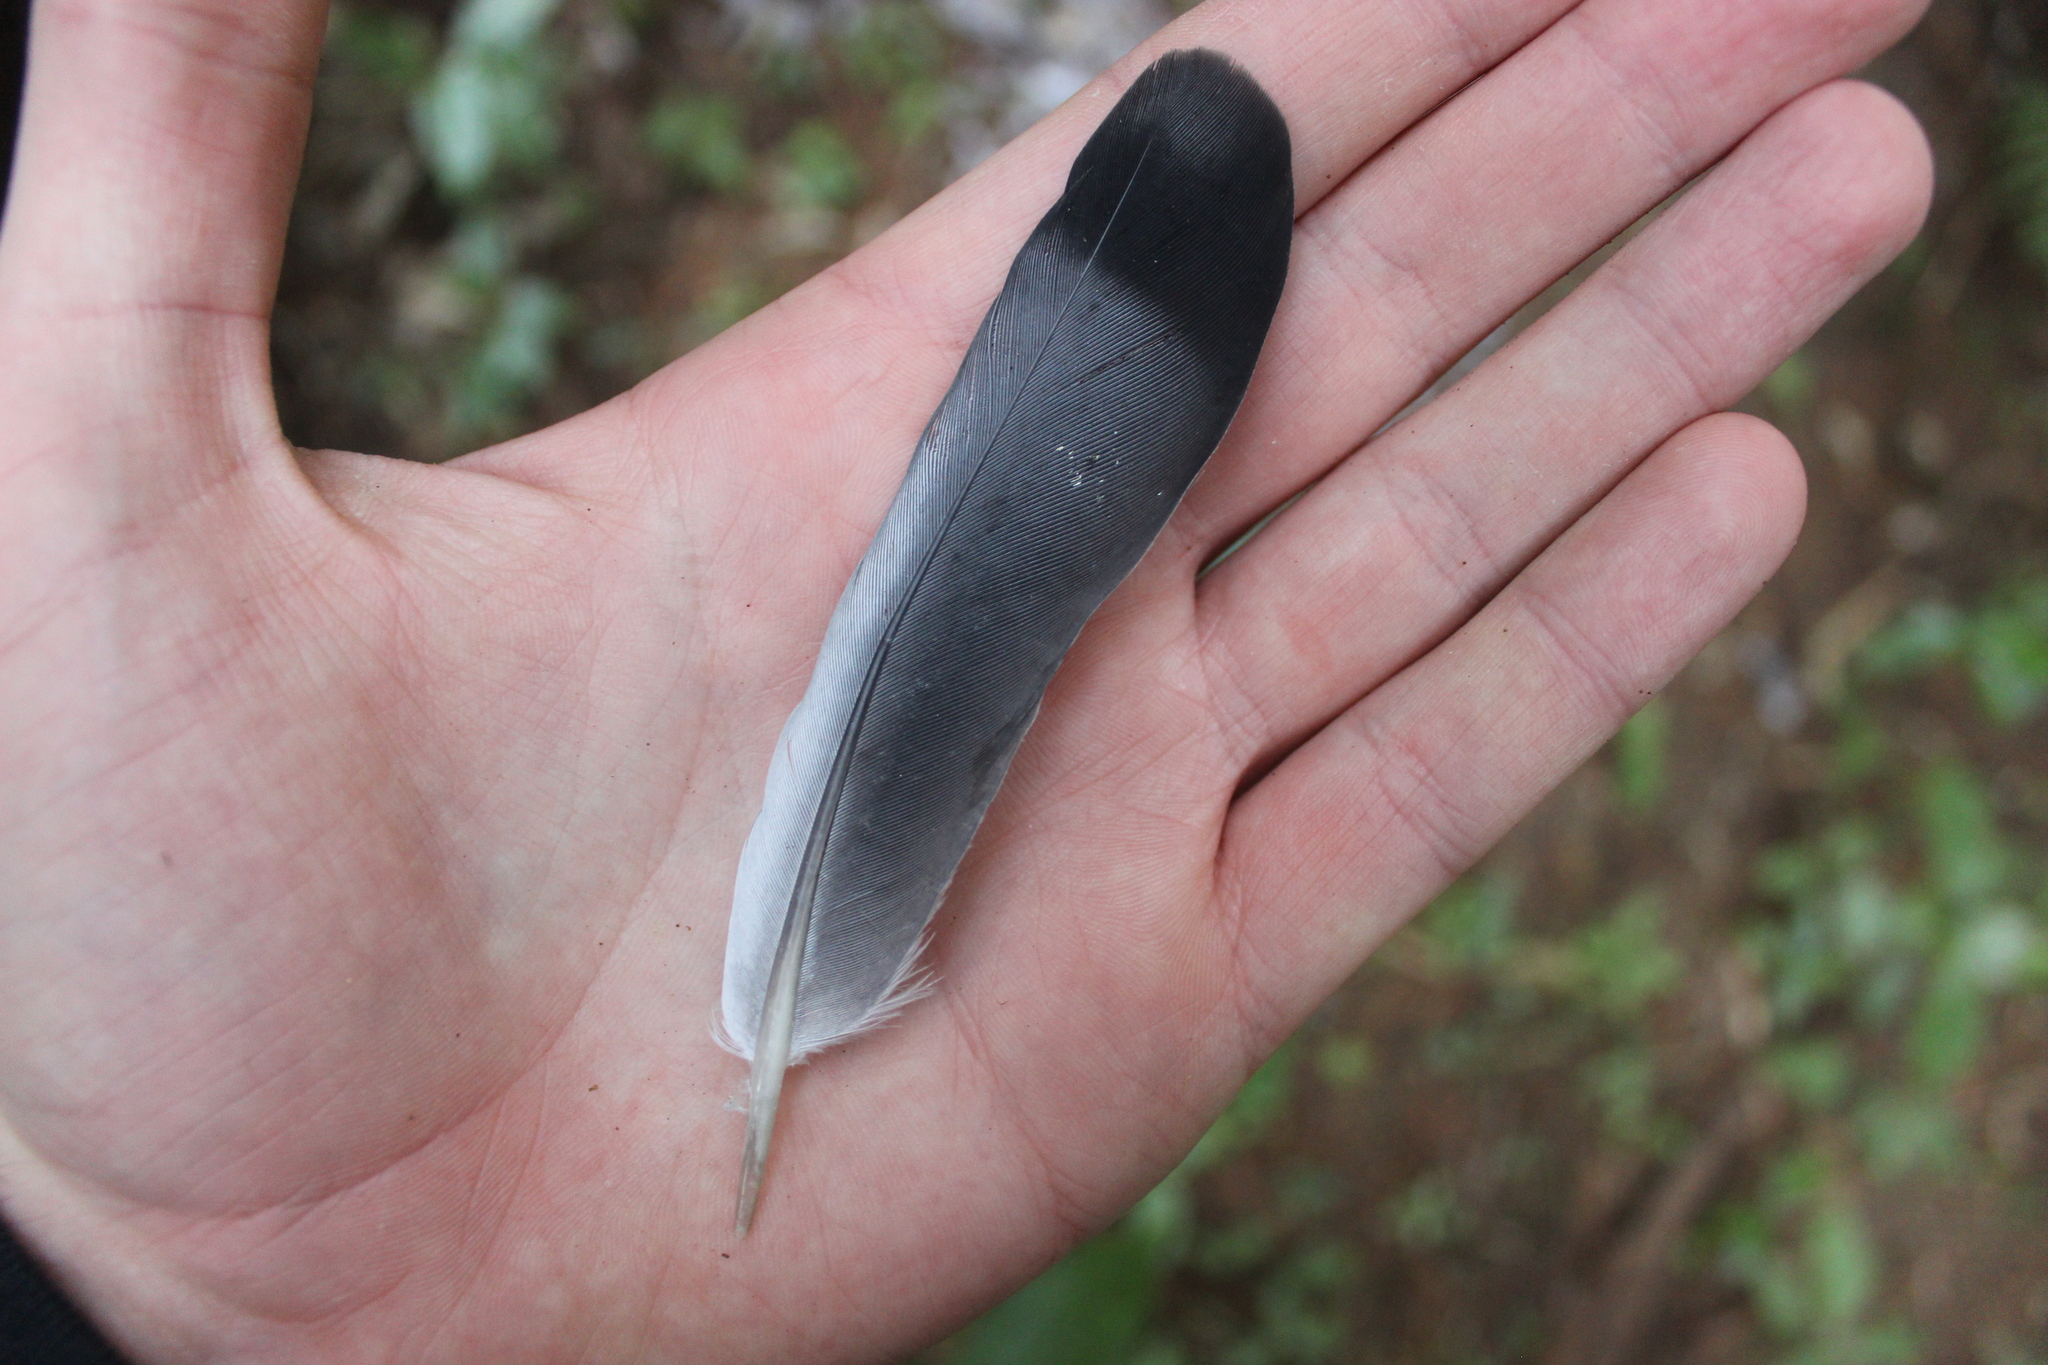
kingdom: Animalia
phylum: Chordata
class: Aves
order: Columbiformes
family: Columbidae
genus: Columba
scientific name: Columba livia
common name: Rock pigeon
